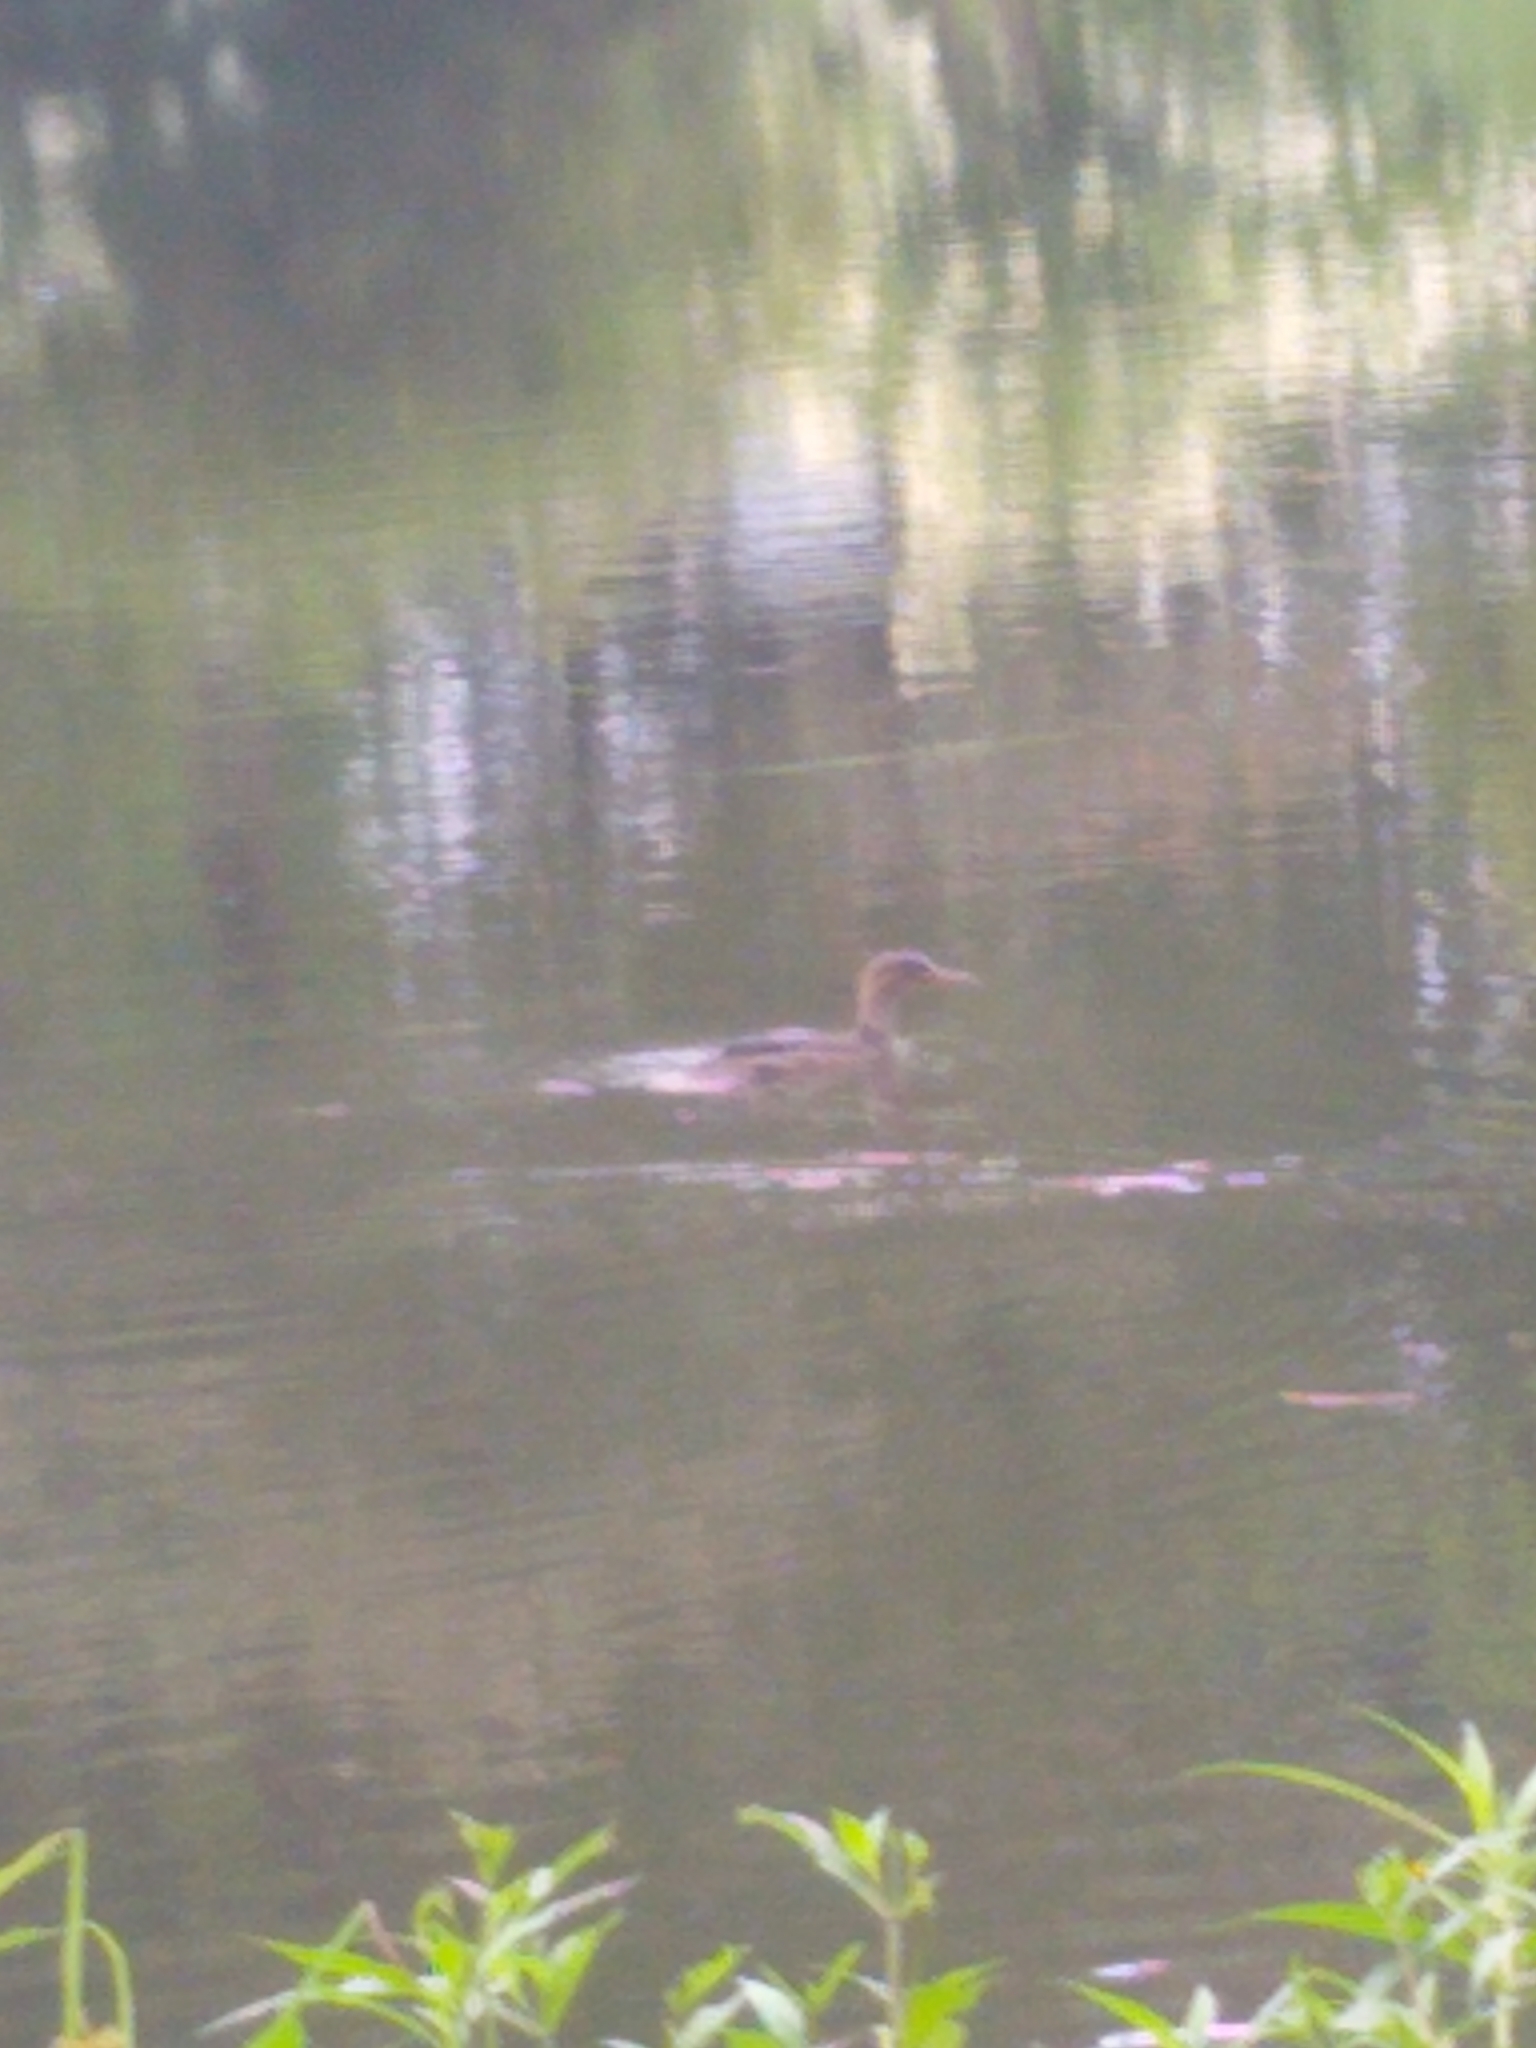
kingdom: Animalia
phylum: Chordata
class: Aves
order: Anseriformes
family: Anatidae
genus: Lophodytes
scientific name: Lophodytes cucullatus
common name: Hooded merganser
